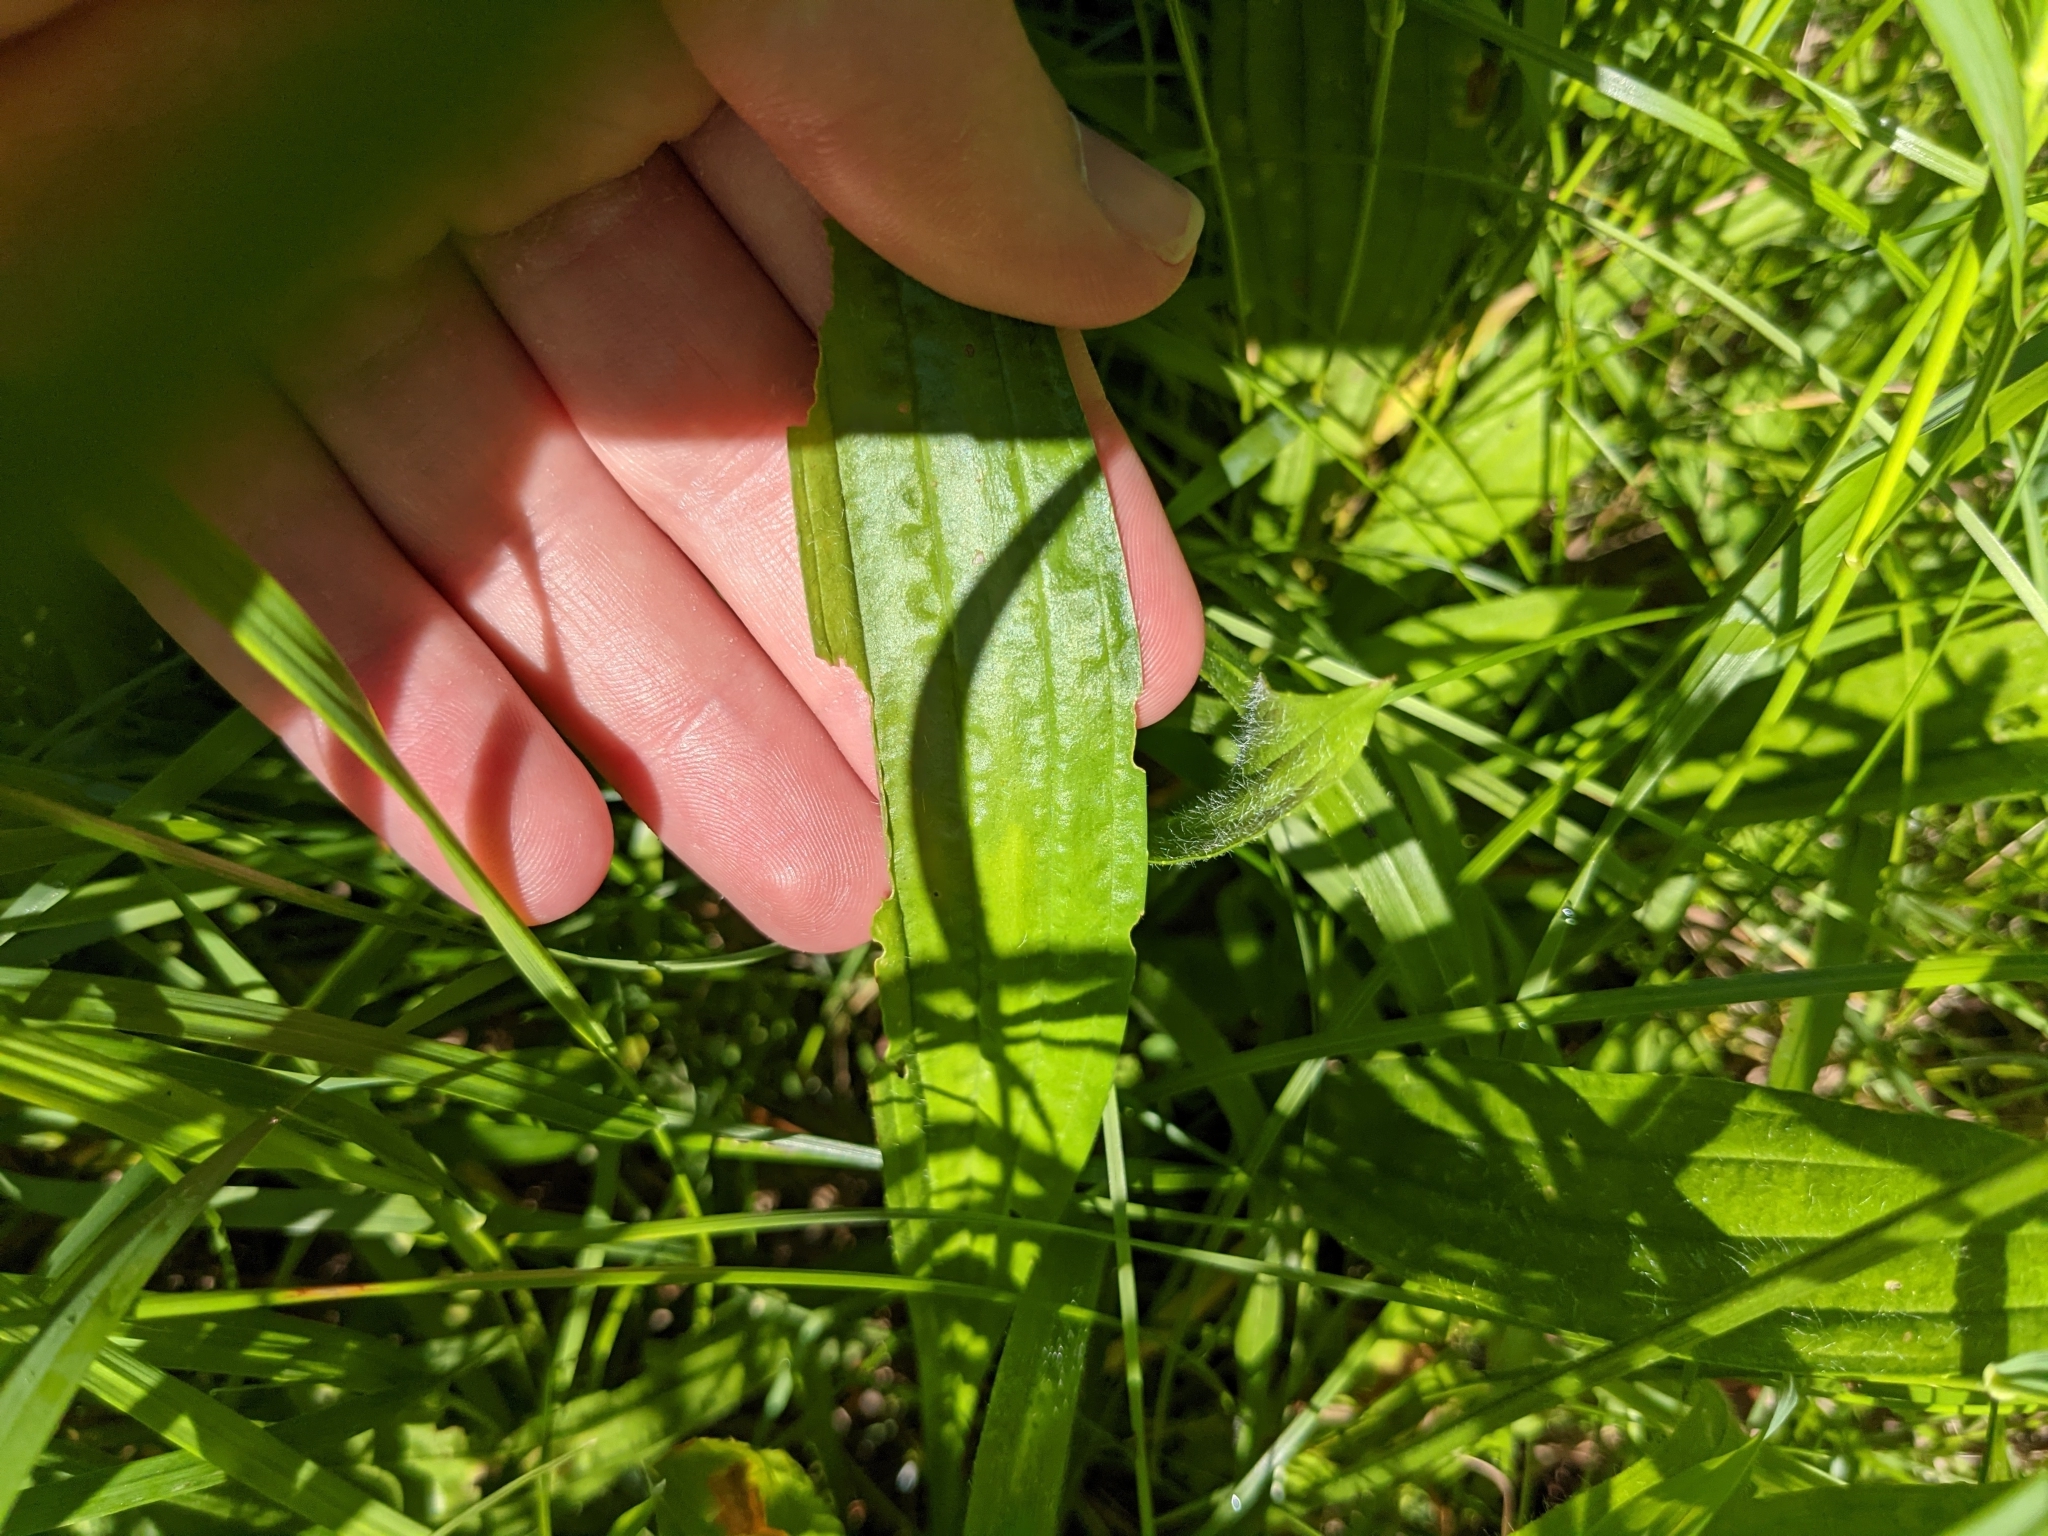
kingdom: Plantae
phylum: Tracheophyta
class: Magnoliopsida
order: Lamiales
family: Plantaginaceae
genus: Plantago
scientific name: Plantago lanceolata
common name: Ribwort plantain
